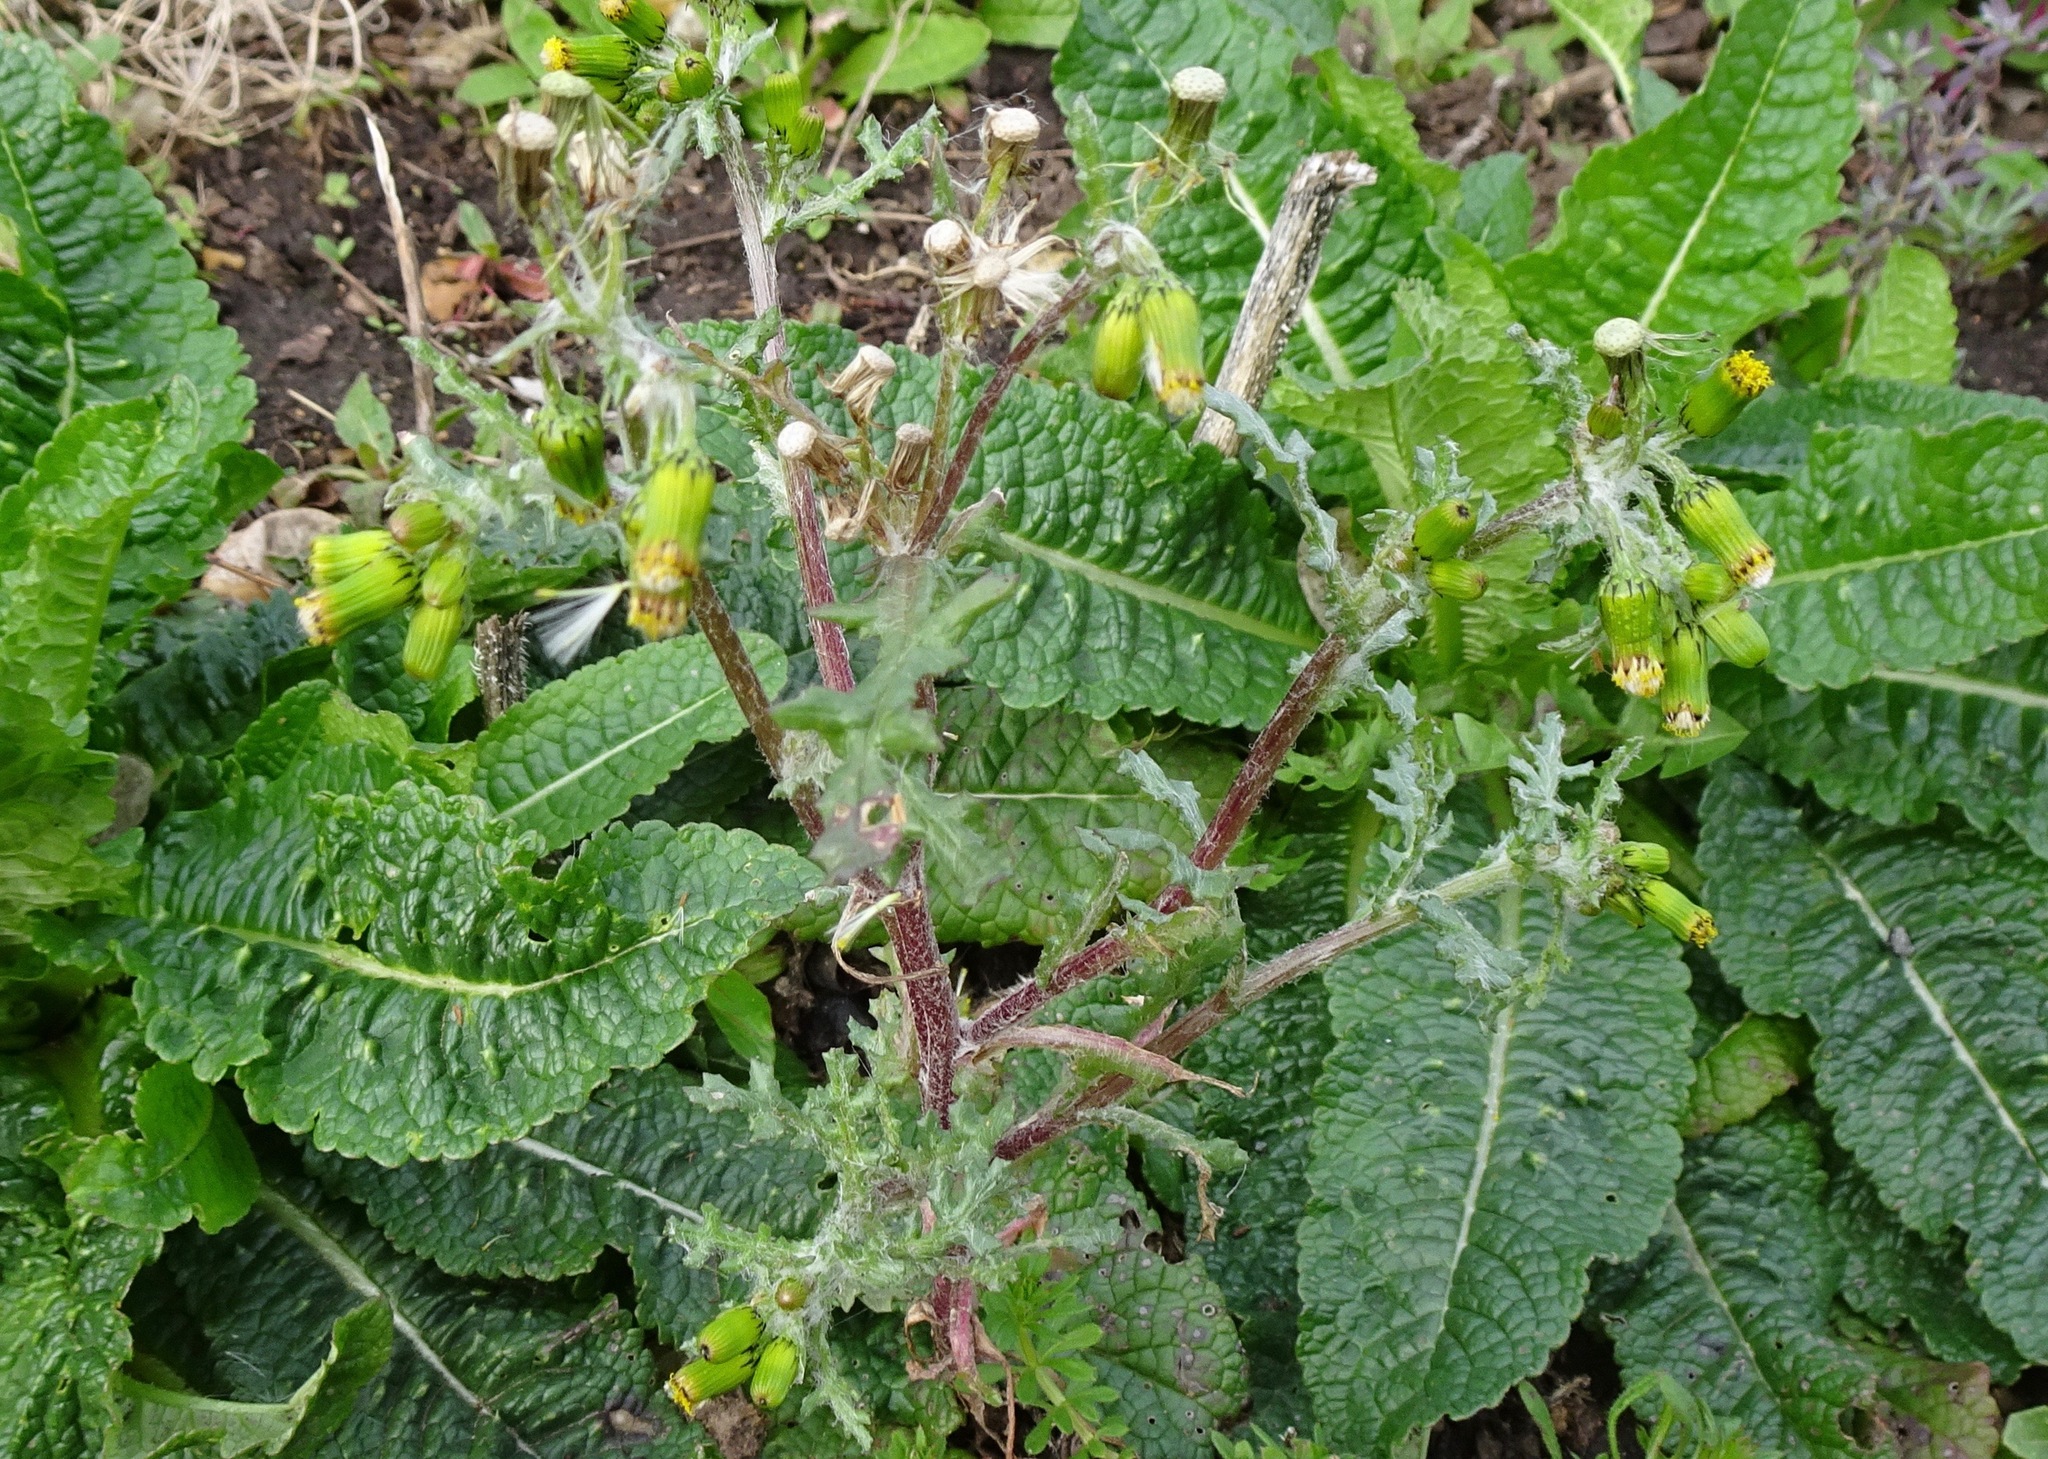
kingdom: Plantae
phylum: Tracheophyta
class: Magnoliopsida
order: Asterales
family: Asteraceae
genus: Senecio
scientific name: Senecio vulgaris
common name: Old-man-in-the-spring
